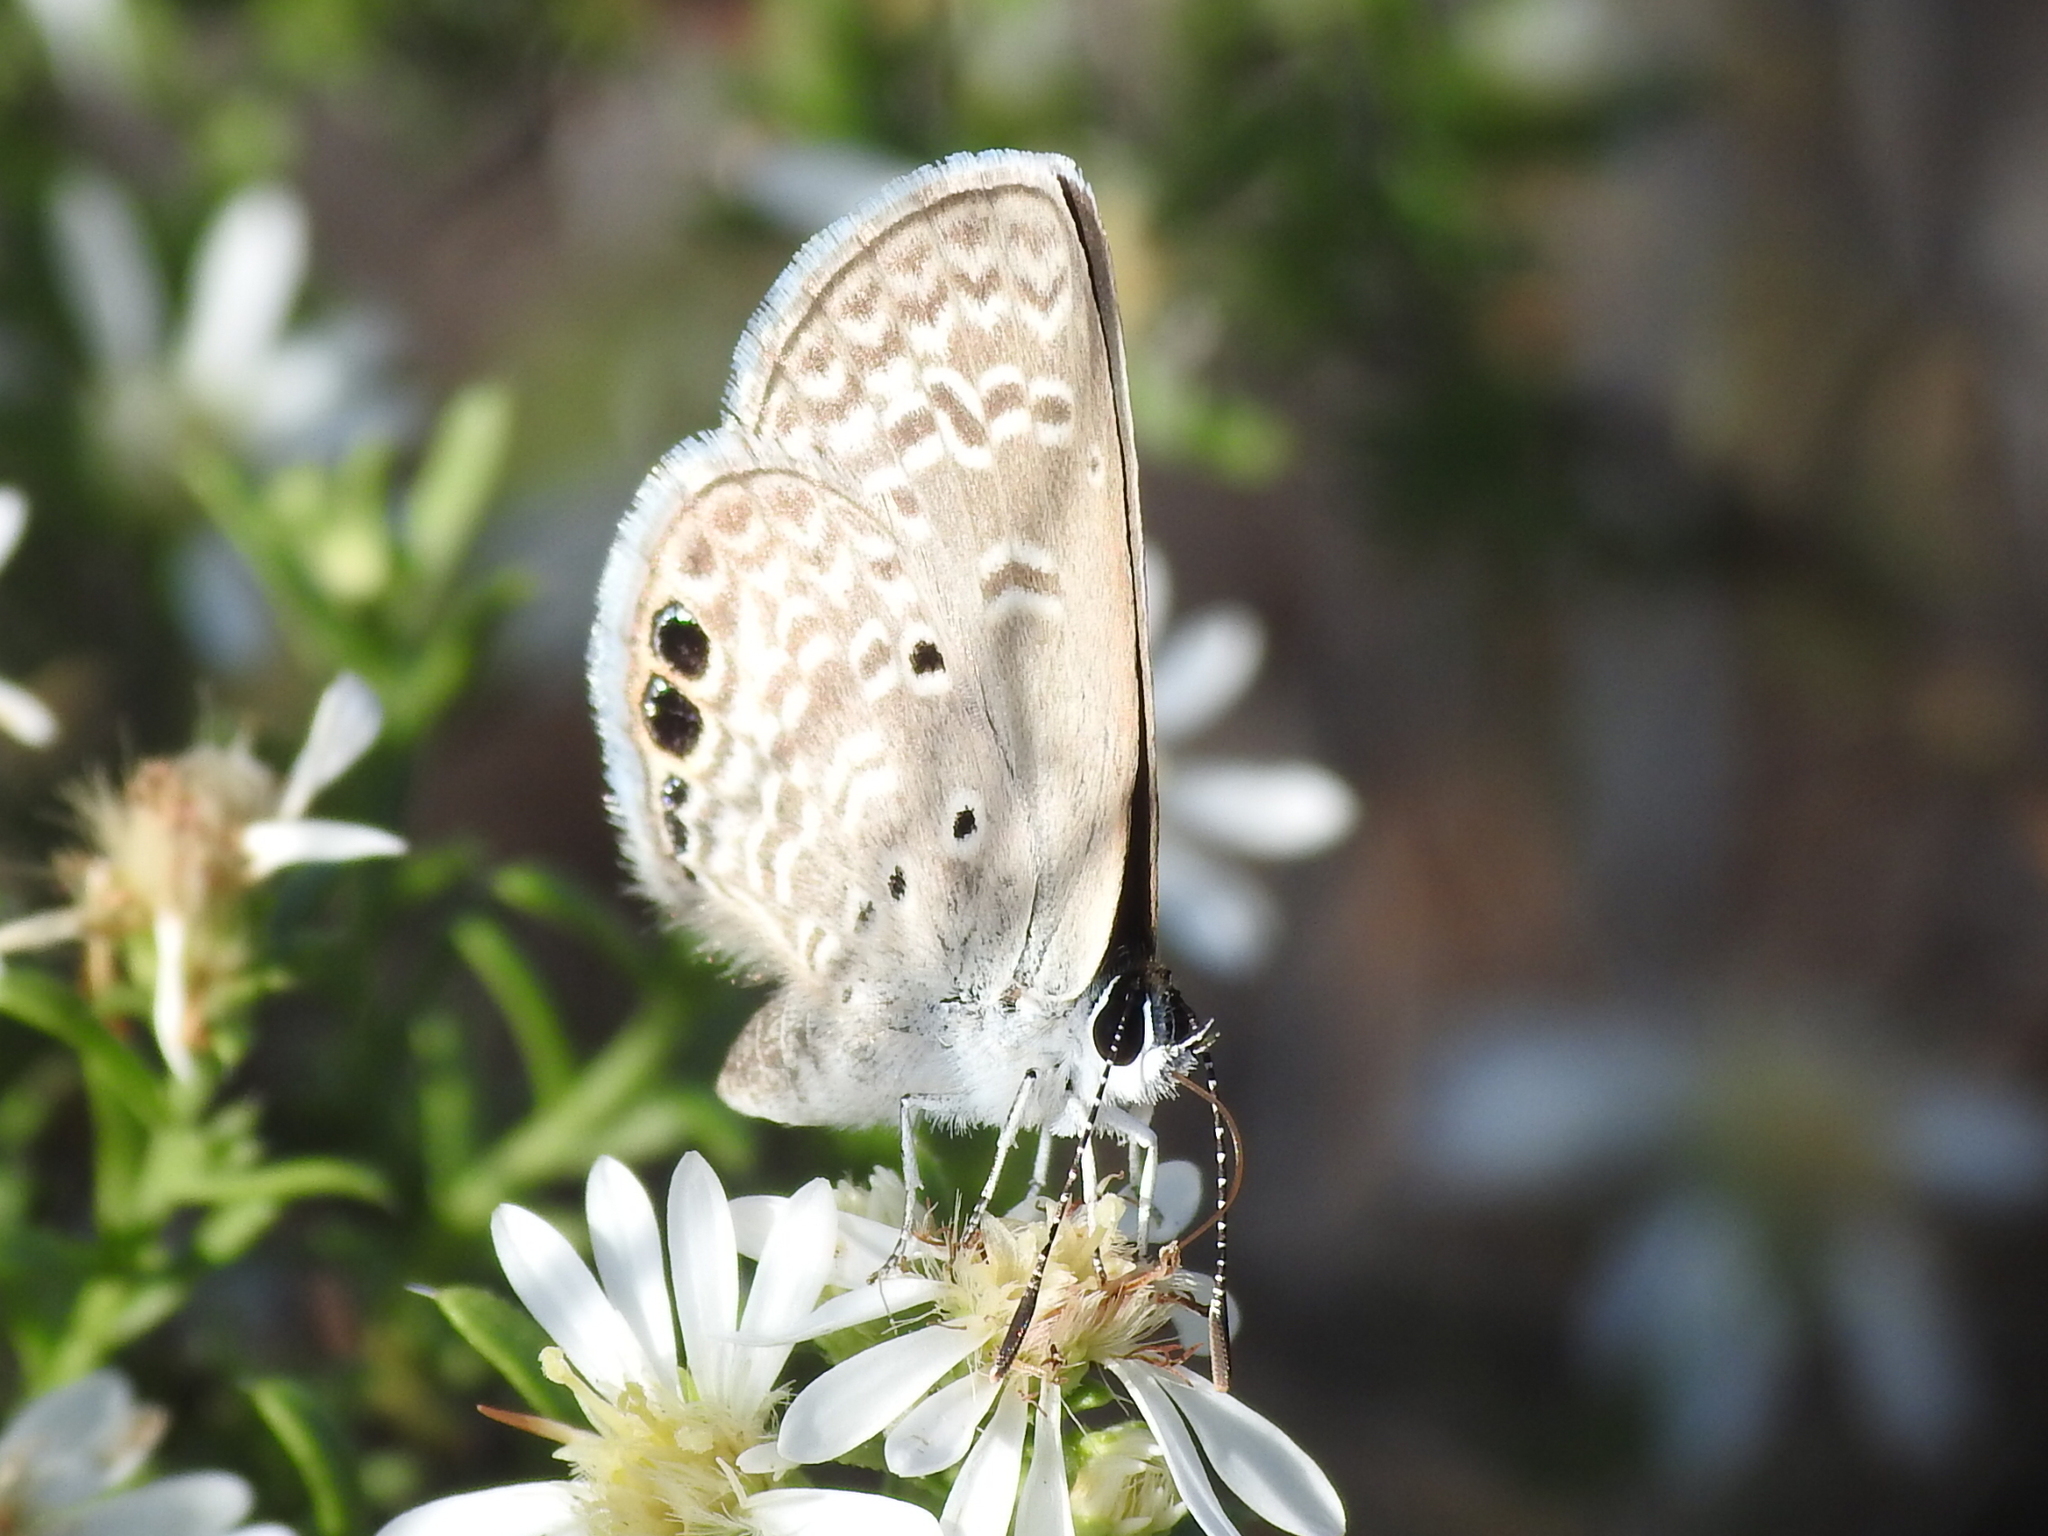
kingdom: Animalia
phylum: Arthropoda
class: Insecta
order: Lepidoptera
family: Lycaenidae
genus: Hemiargus
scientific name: Hemiargus ceraunus
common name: Ceraunus blue
